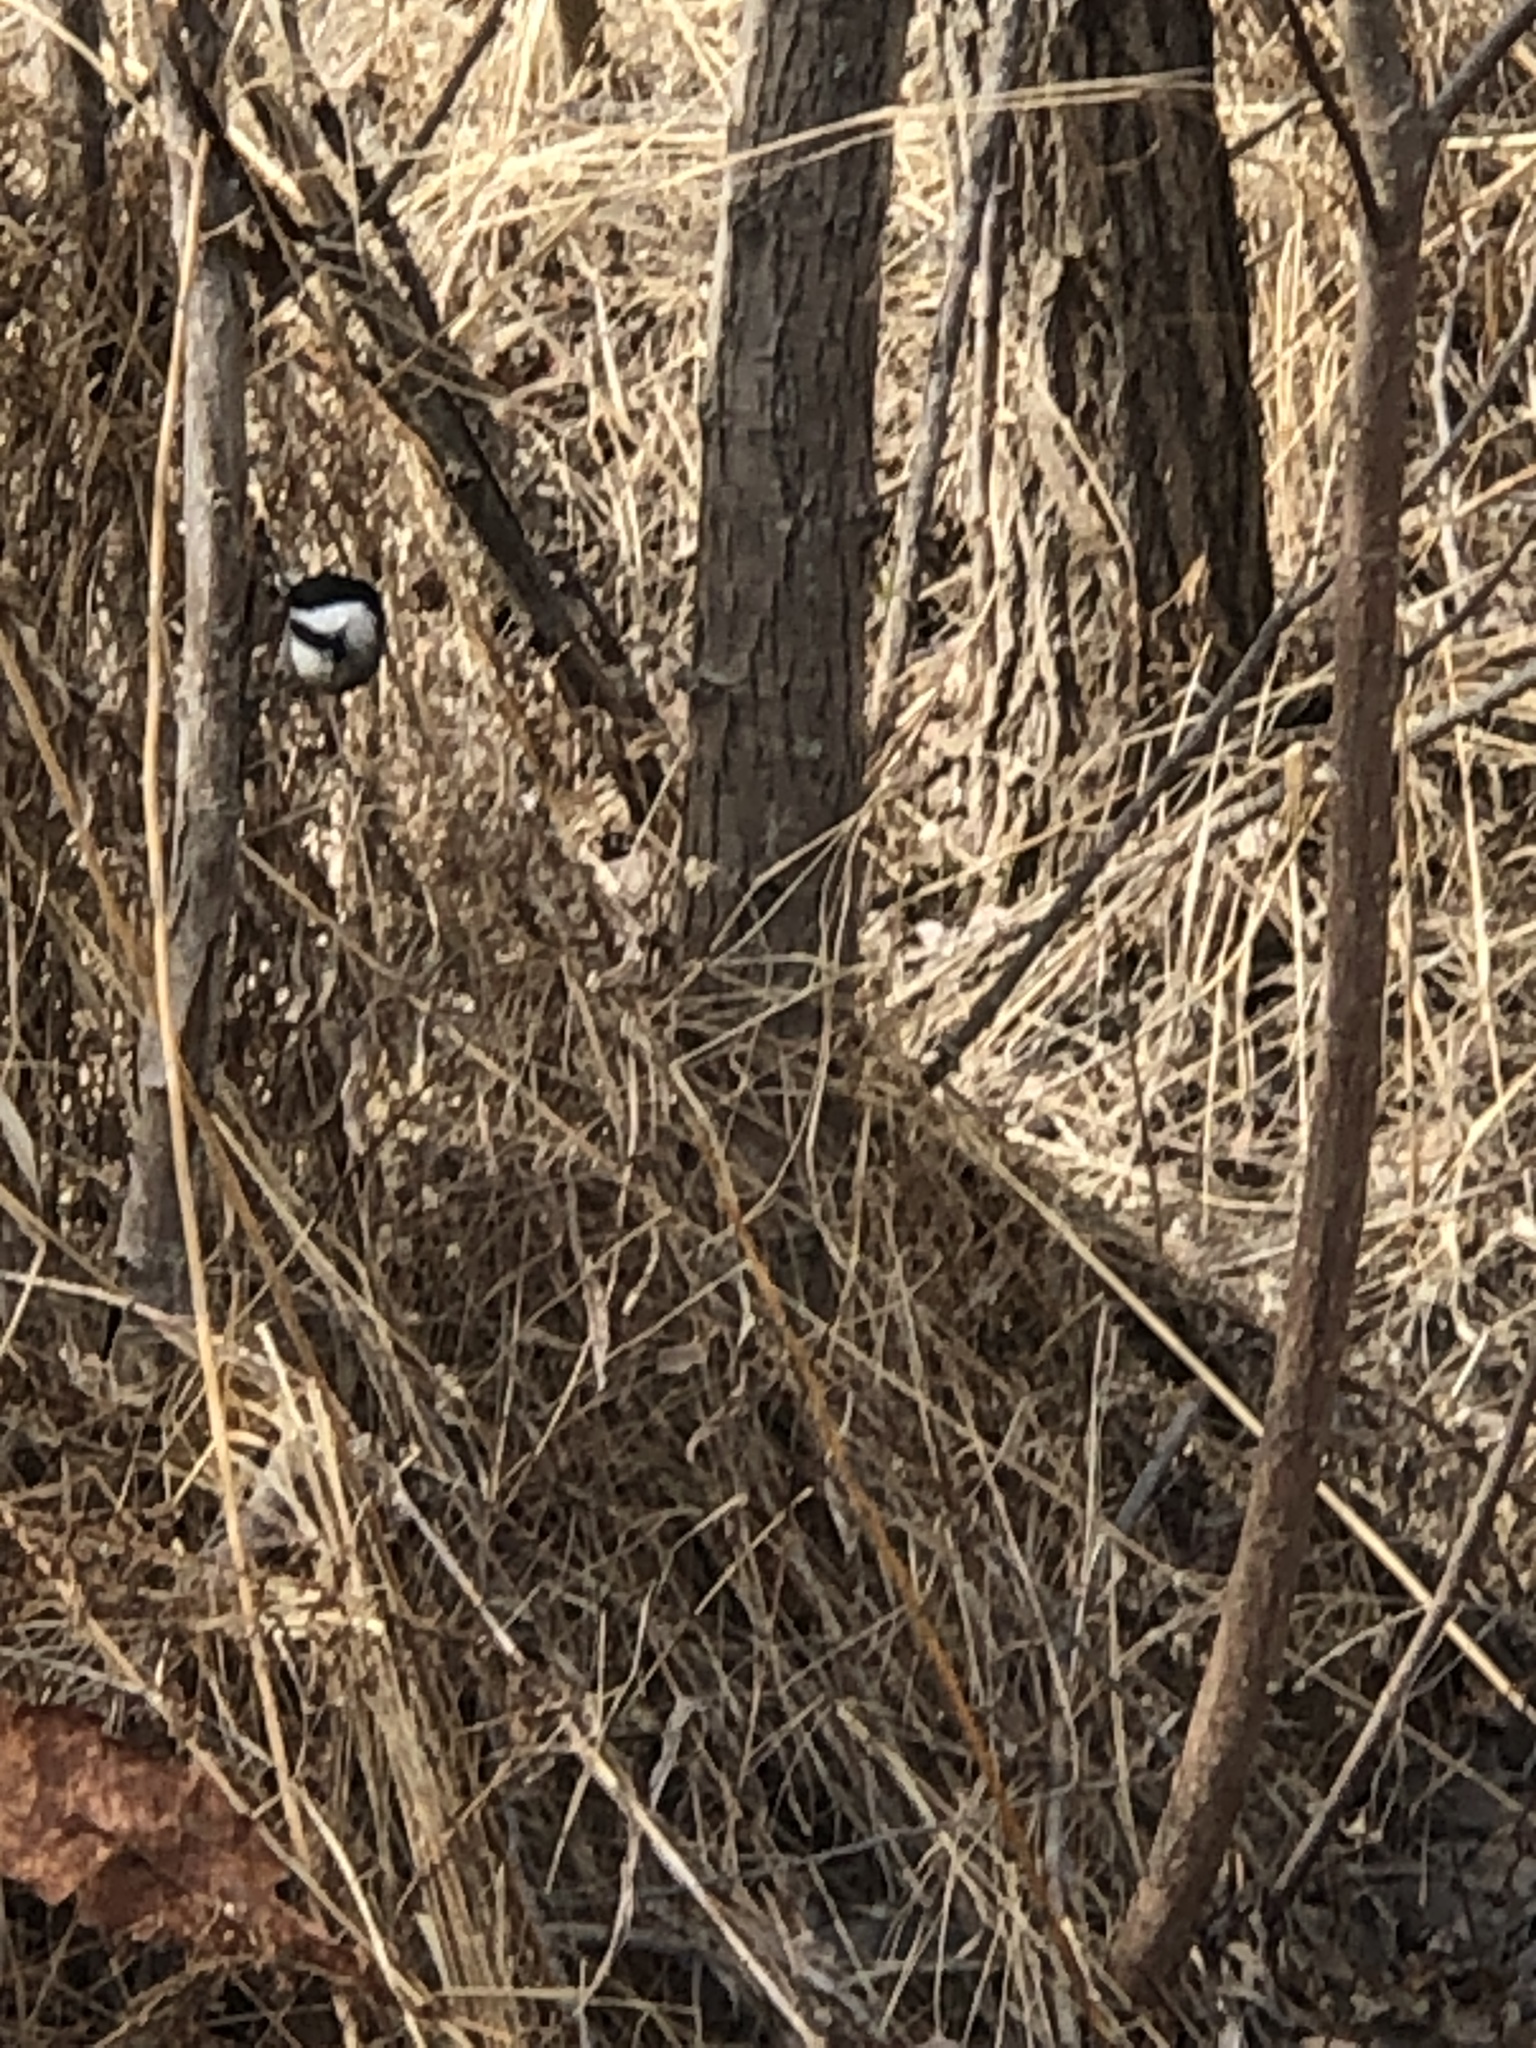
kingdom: Animalia
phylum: Chordata
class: Aves
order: Passeriformes
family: Paridae
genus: Poecile
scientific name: Poecile atricapillus
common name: Black-capped chickadee
